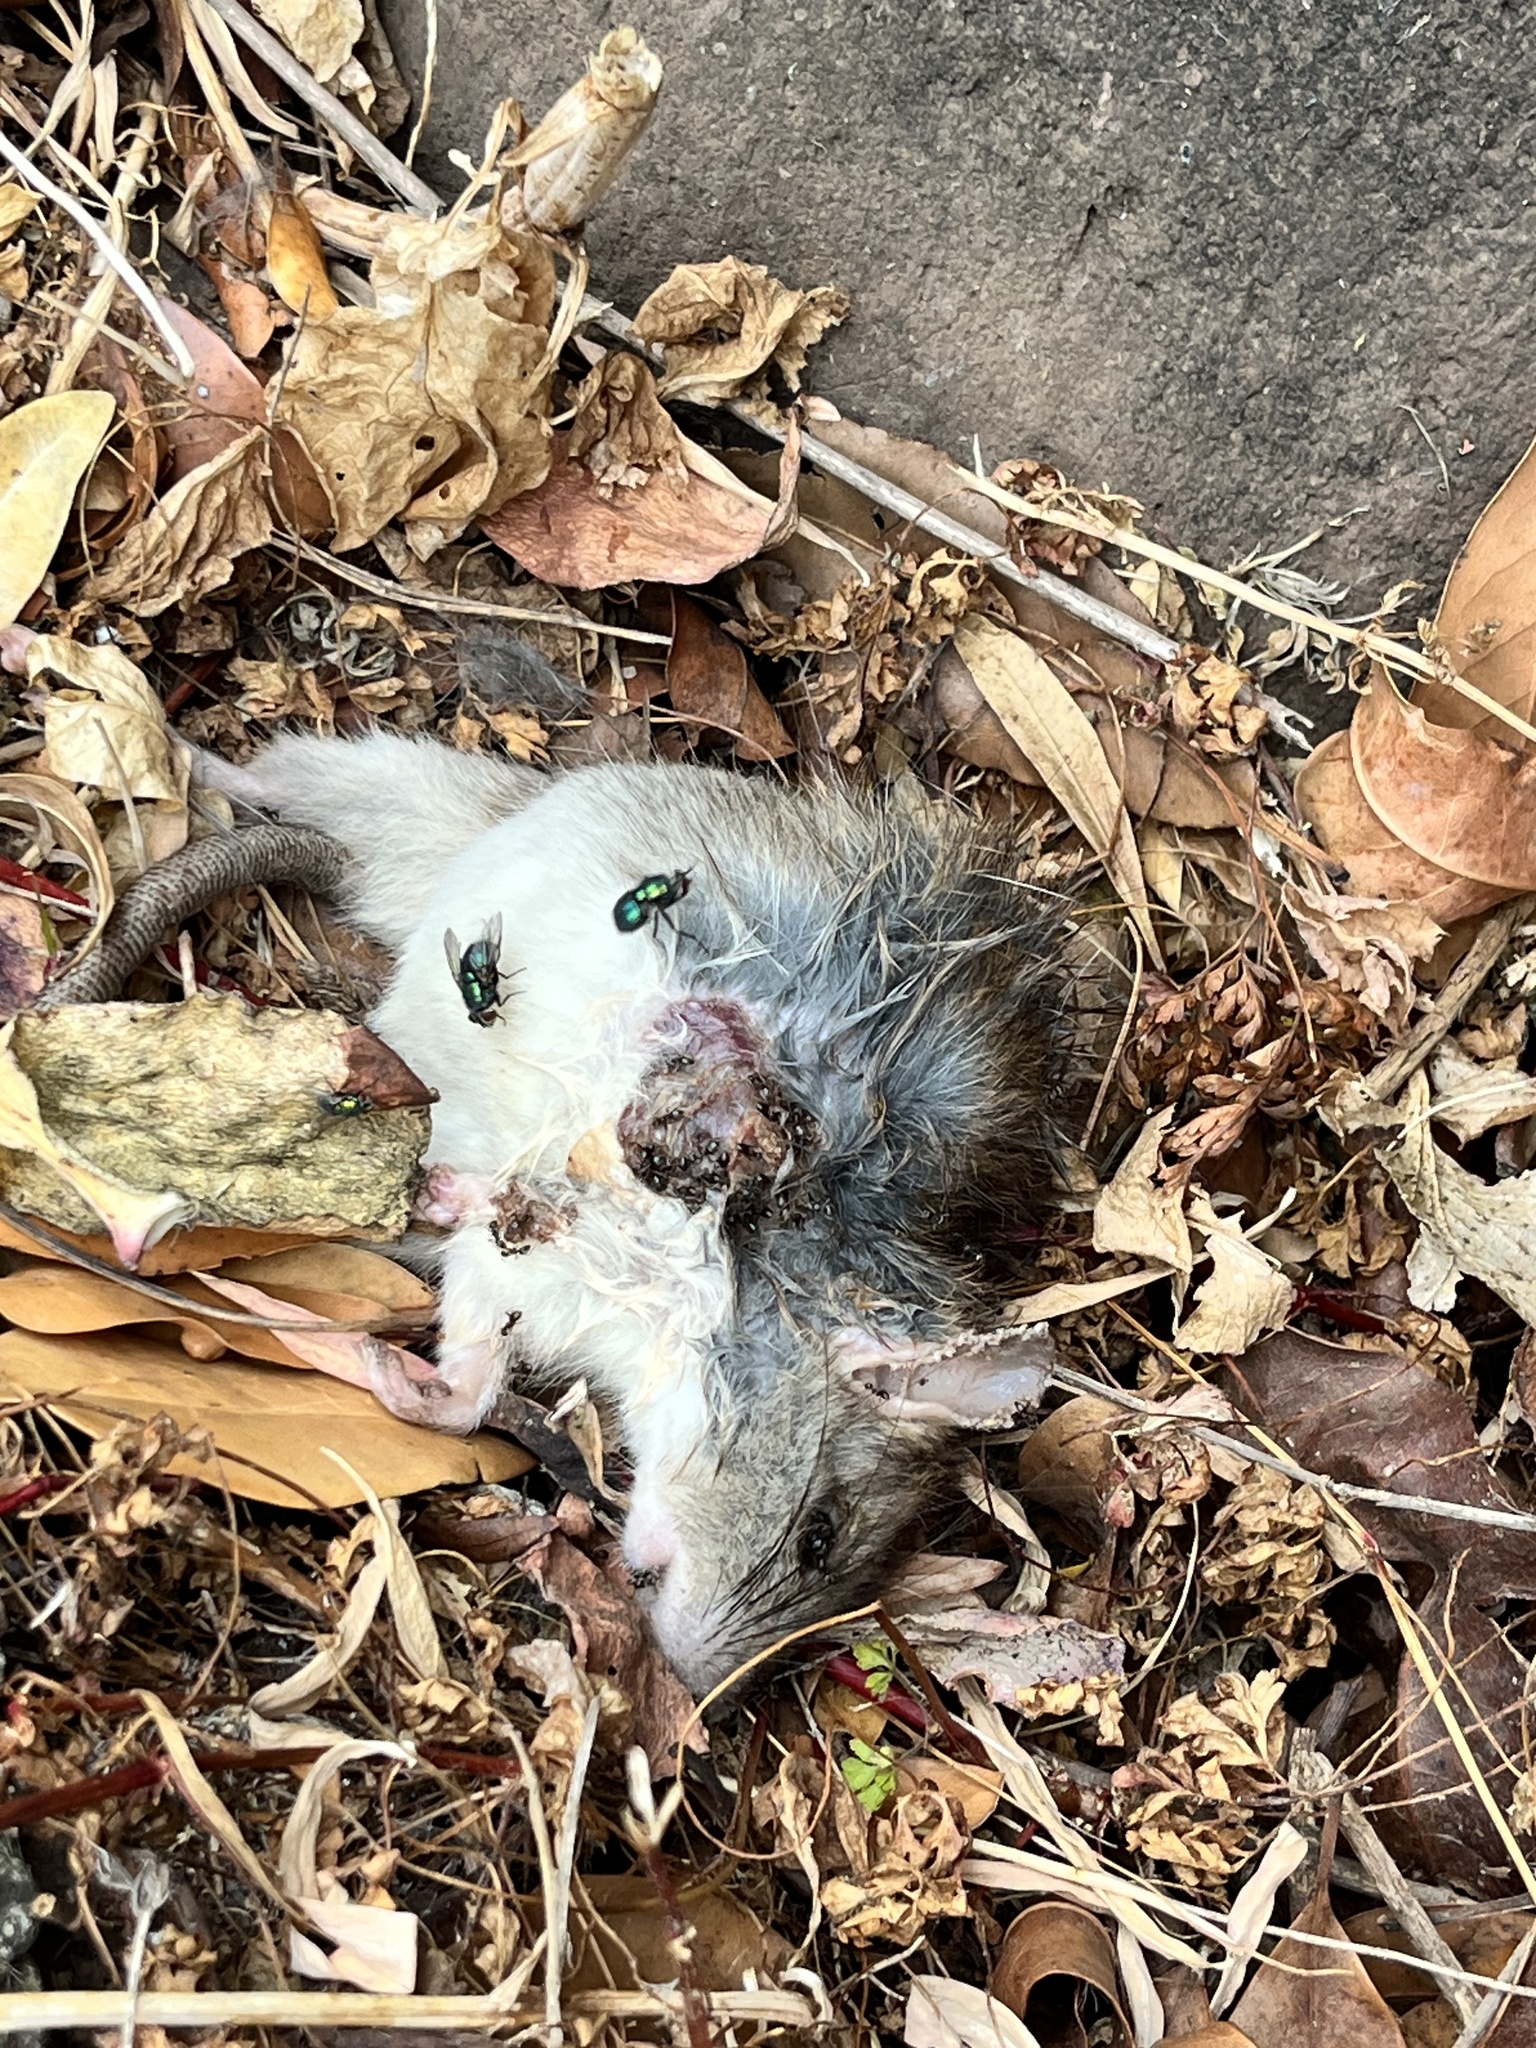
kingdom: Animalia
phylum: Chordata
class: Mammalia
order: Rodentia
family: Muridae
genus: Rattus
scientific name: Rattus rattus
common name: Black rat
